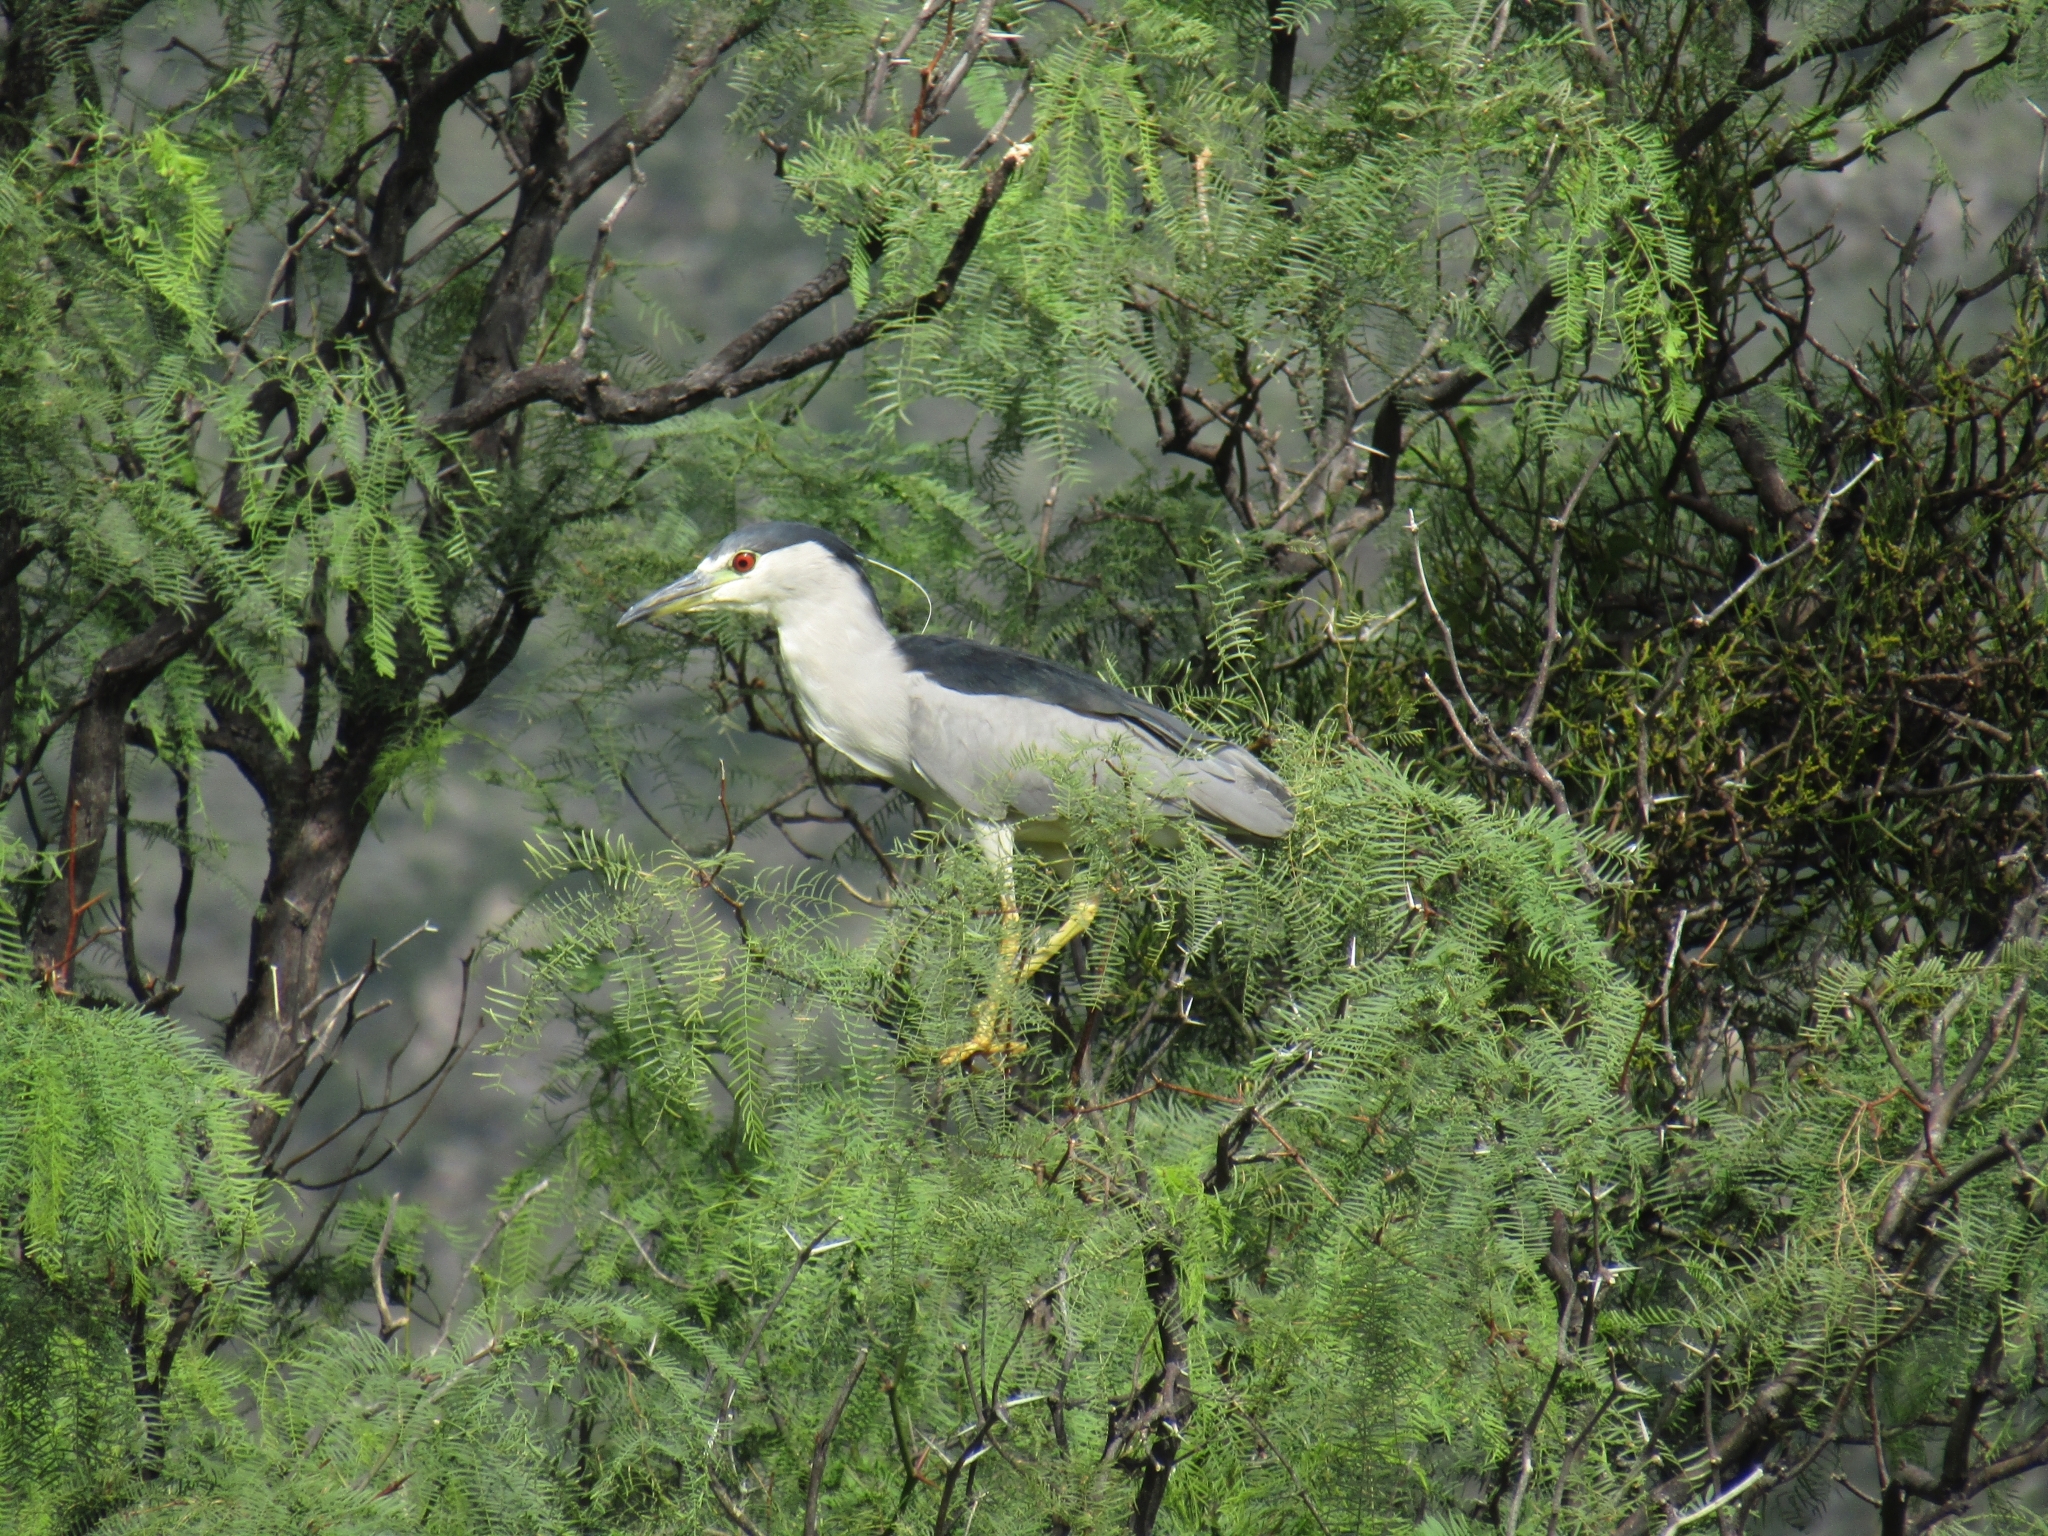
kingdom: Animalia
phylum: Chordata
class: Aves
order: Pelecaniformes
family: Ardeidae
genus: Nycticorax
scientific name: Nycticorax nycticorax
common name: Black-crowned night heron
